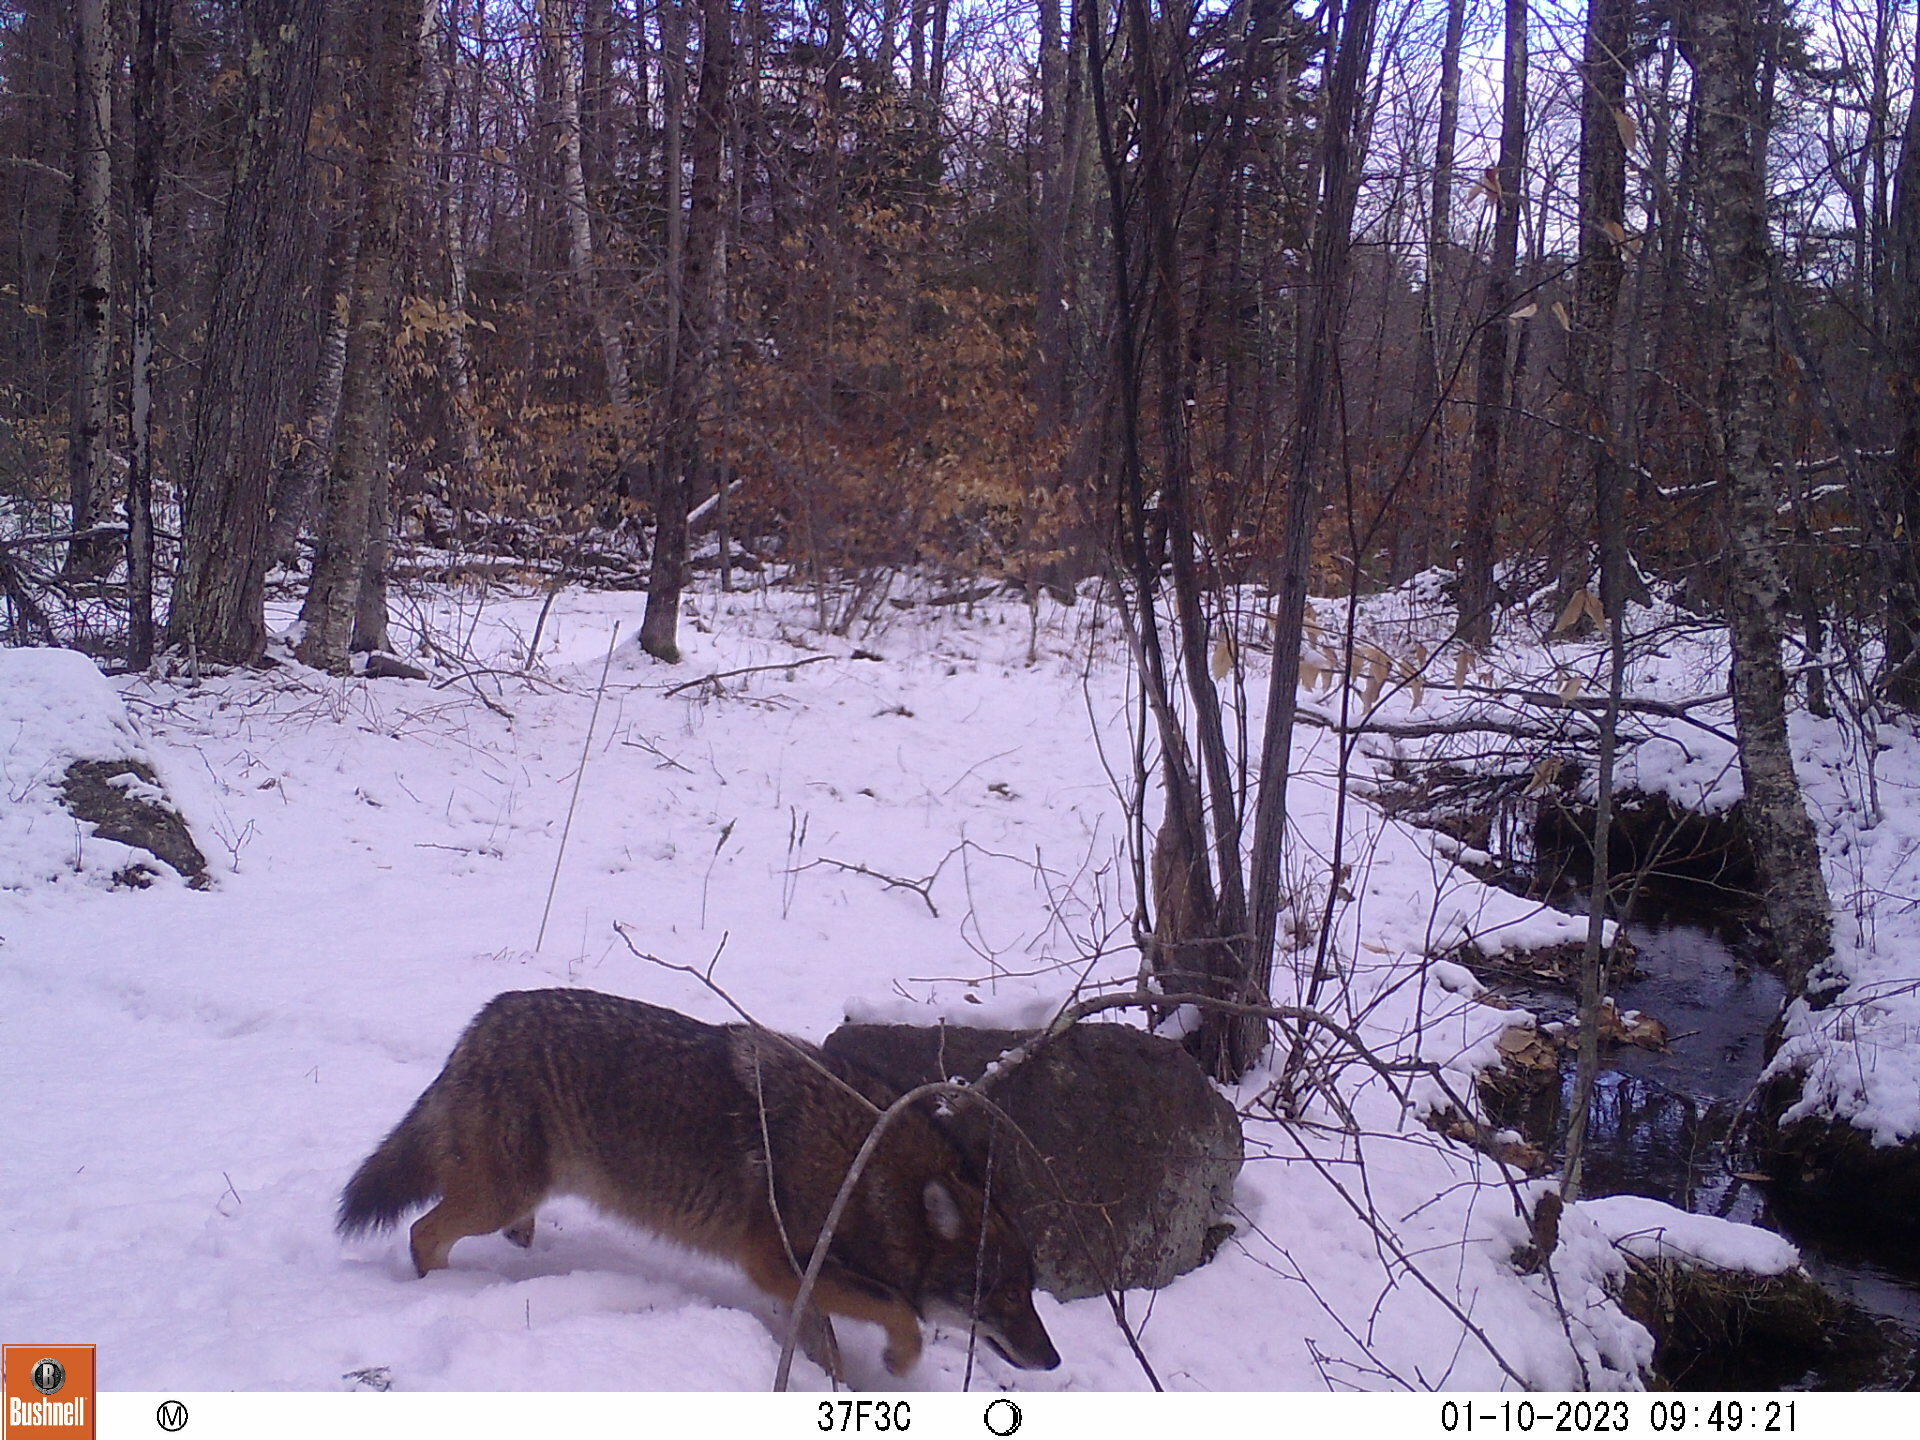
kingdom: Animalia
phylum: Chordata
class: Mammalia
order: Carnivora
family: Canidae
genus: Canis
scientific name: Canis latrans
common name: Coyote
